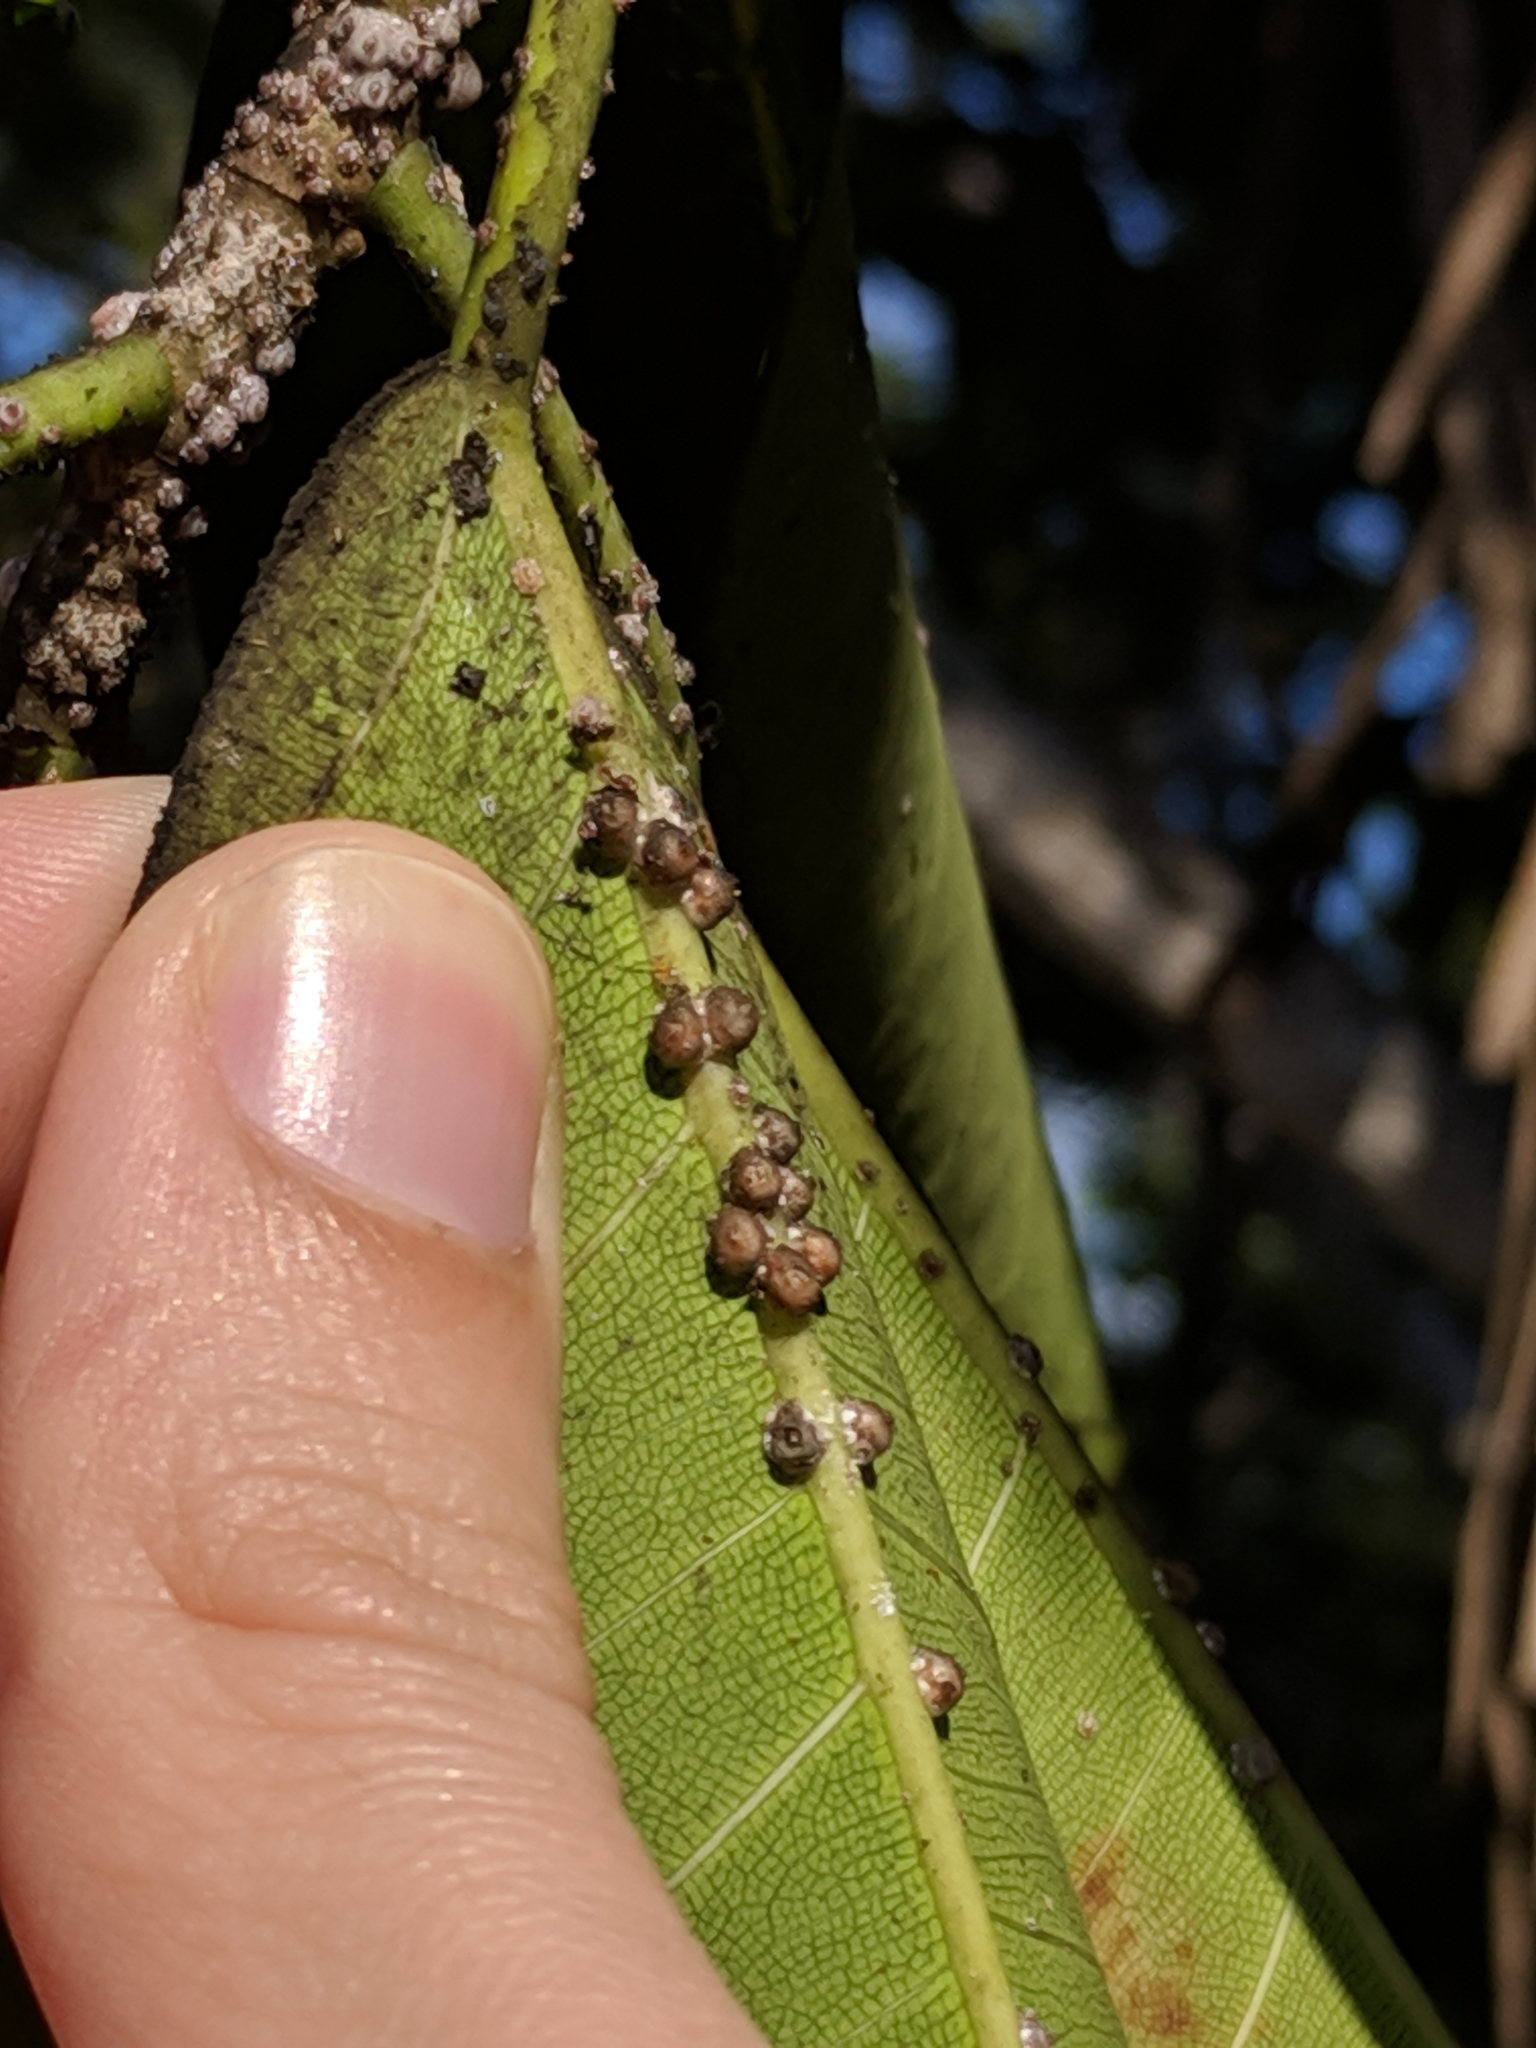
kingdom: Animalia
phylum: Arthropoda
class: Insecta
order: Hemiptera
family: Coccidae
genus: Ceroplastes
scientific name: Ceroplastes rusci
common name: Barnacle scale
